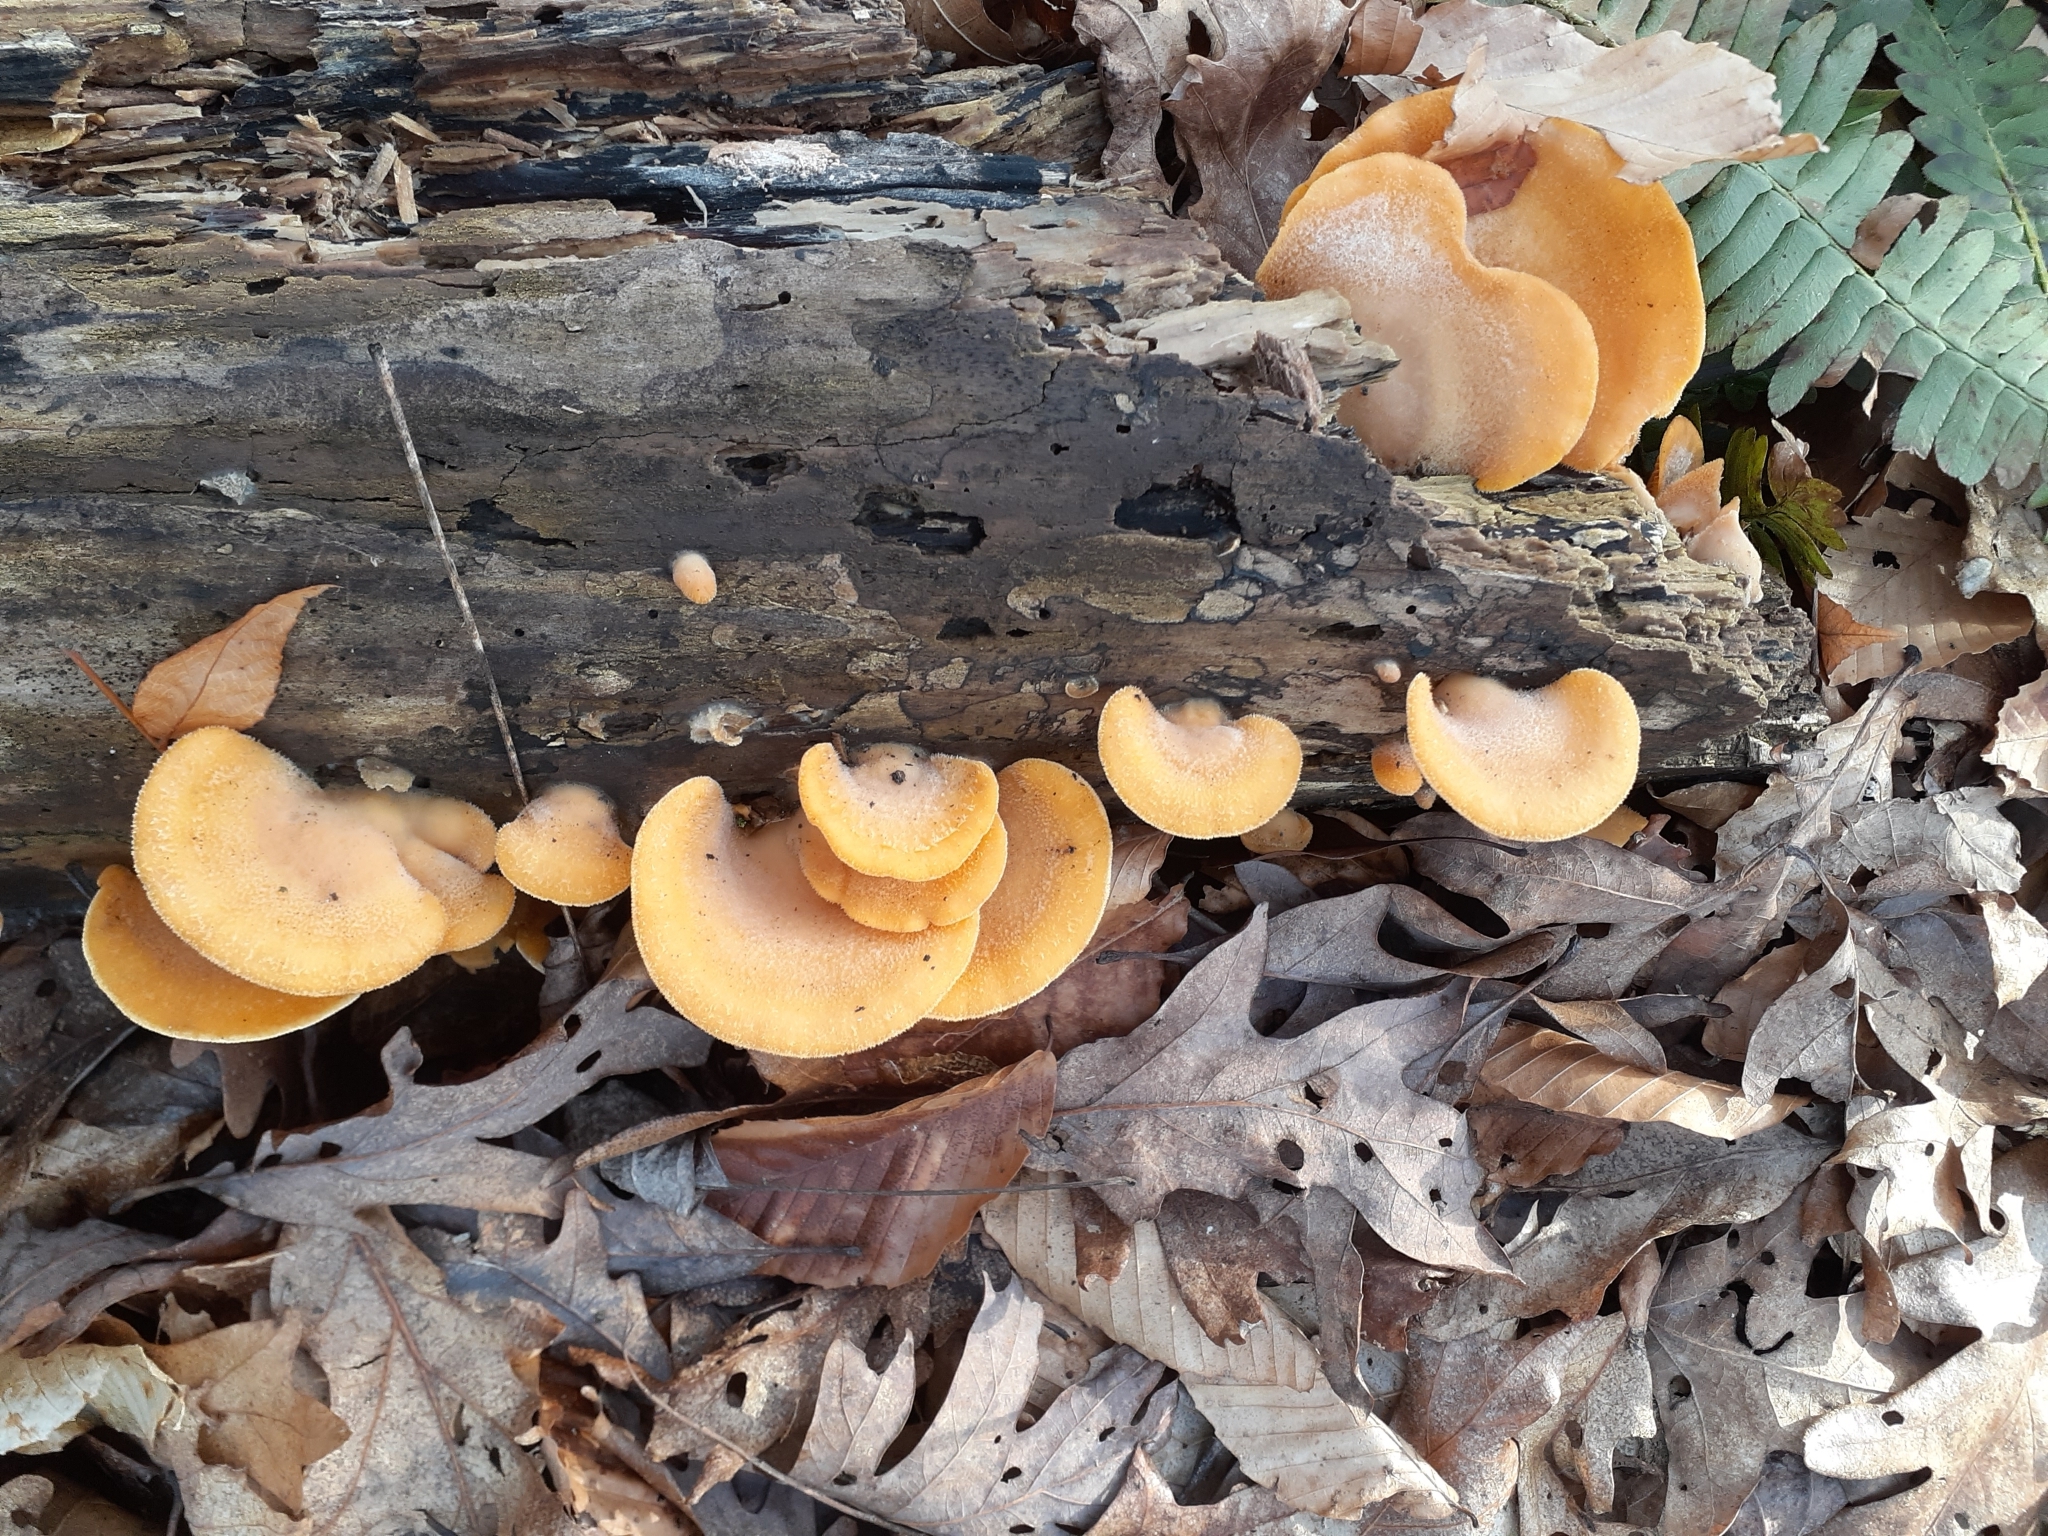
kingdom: Fungi
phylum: Basidiomycota
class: Agaricomycetes
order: Agaricales
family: Phyllotopsidaceae
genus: Phyllotopsis
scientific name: Phyllotopsis nidulans
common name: Orange mock oyster
